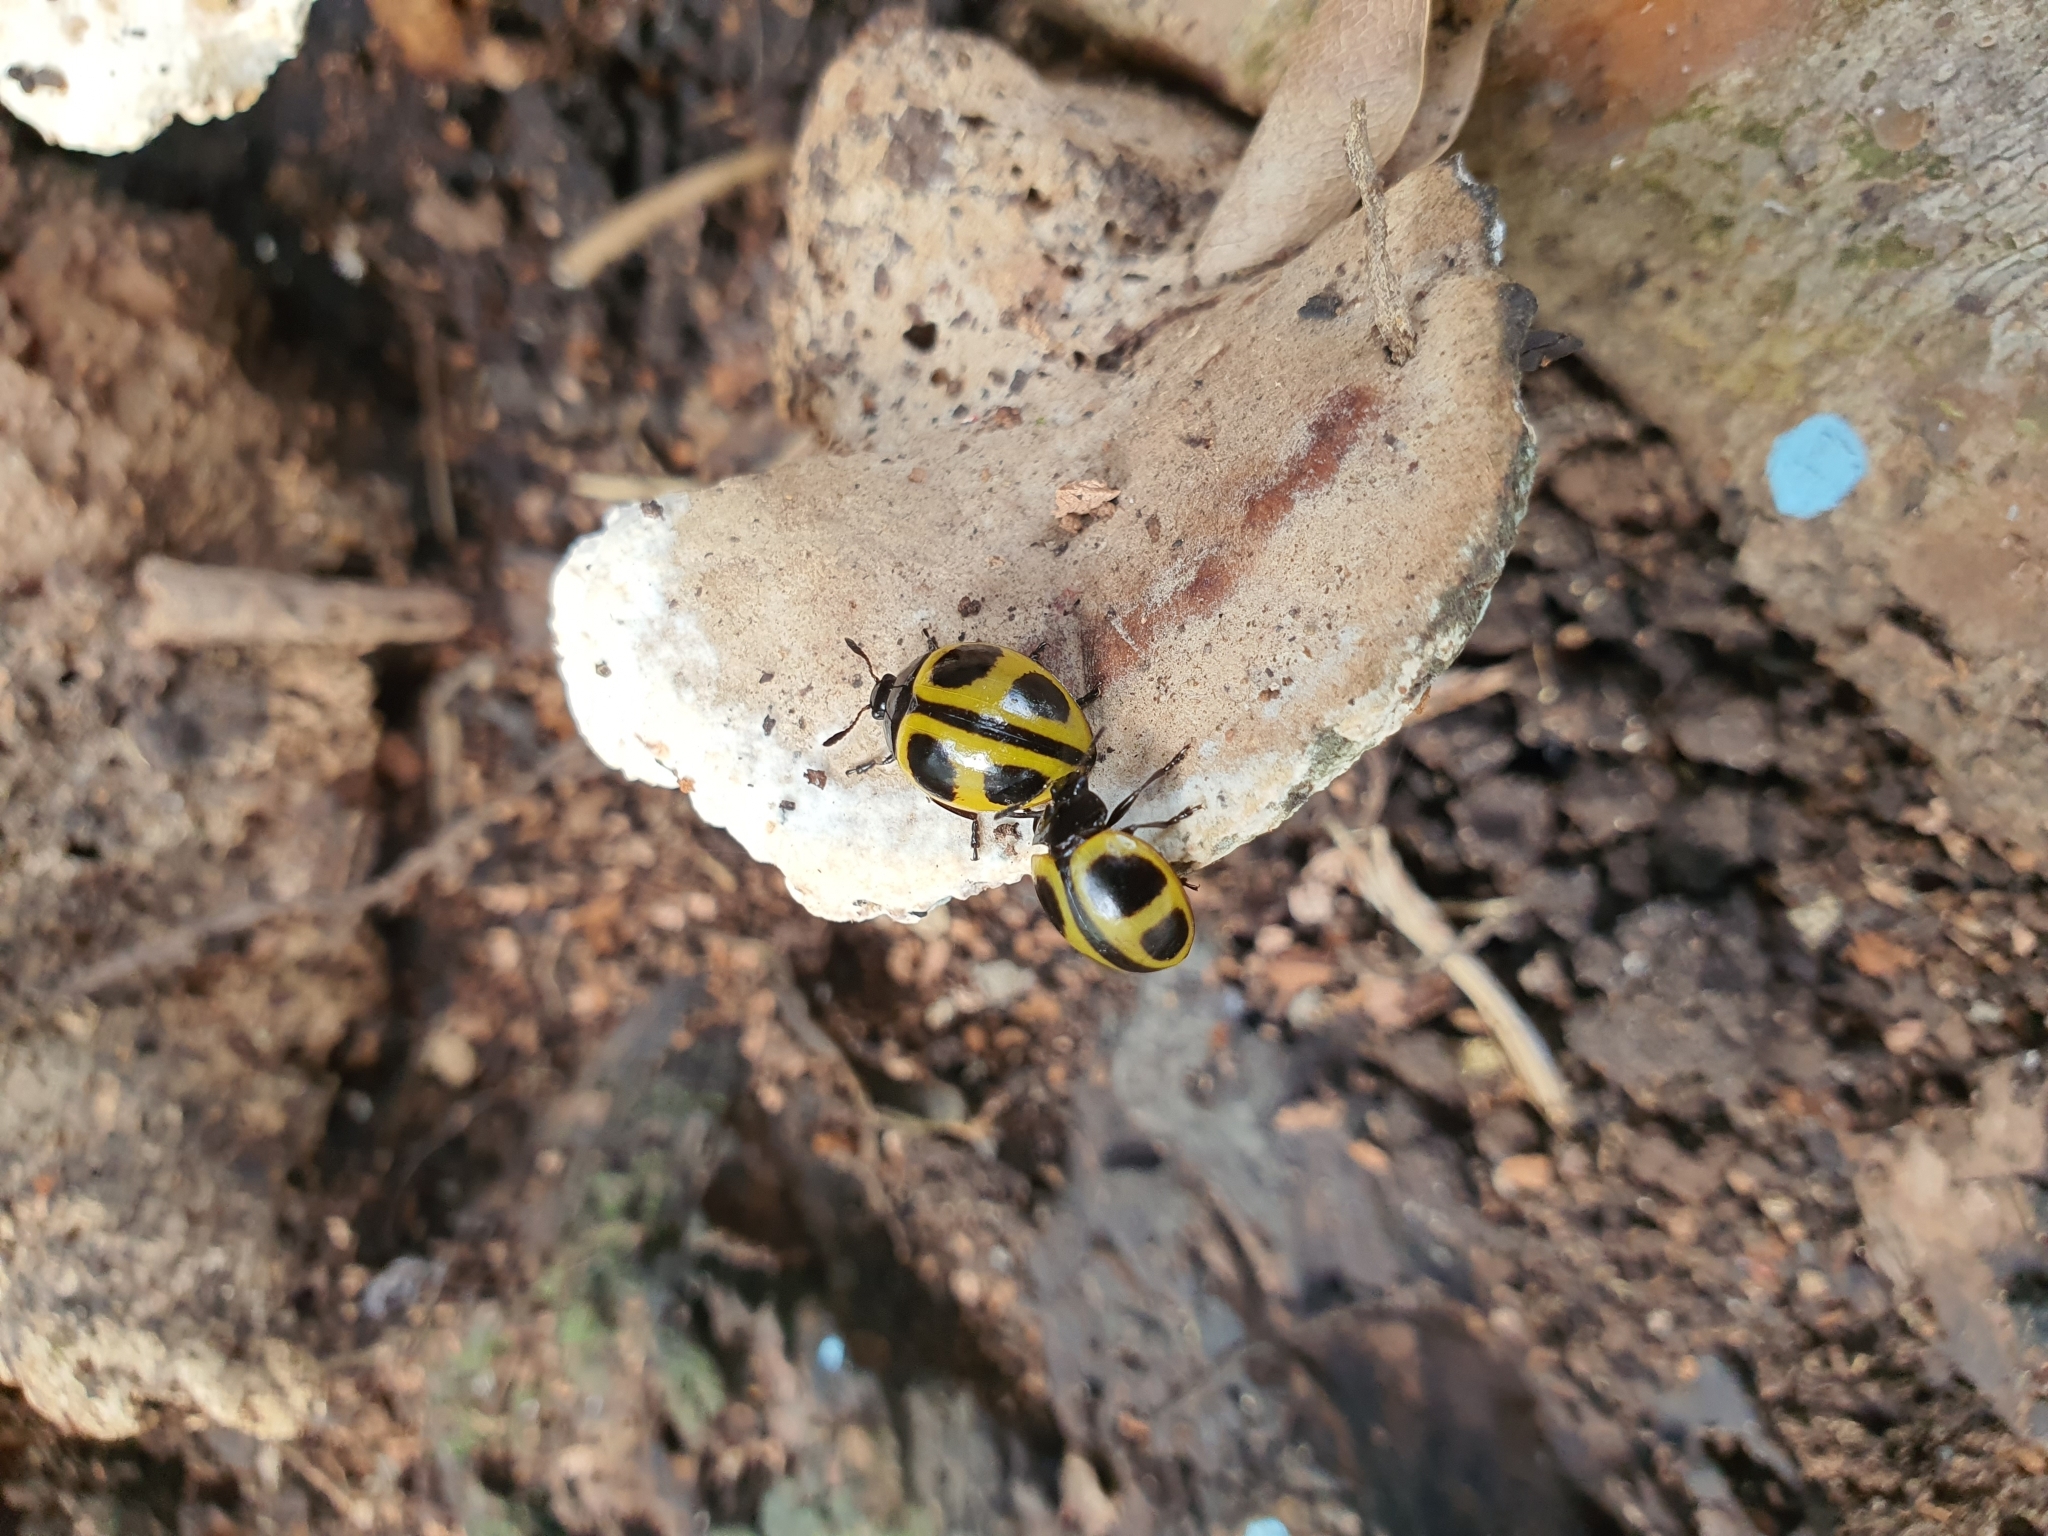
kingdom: Animalia
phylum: Arthropoda
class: Insecta
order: Coleoptera
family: Erotylidae
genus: Aegithus
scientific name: Aegithus
